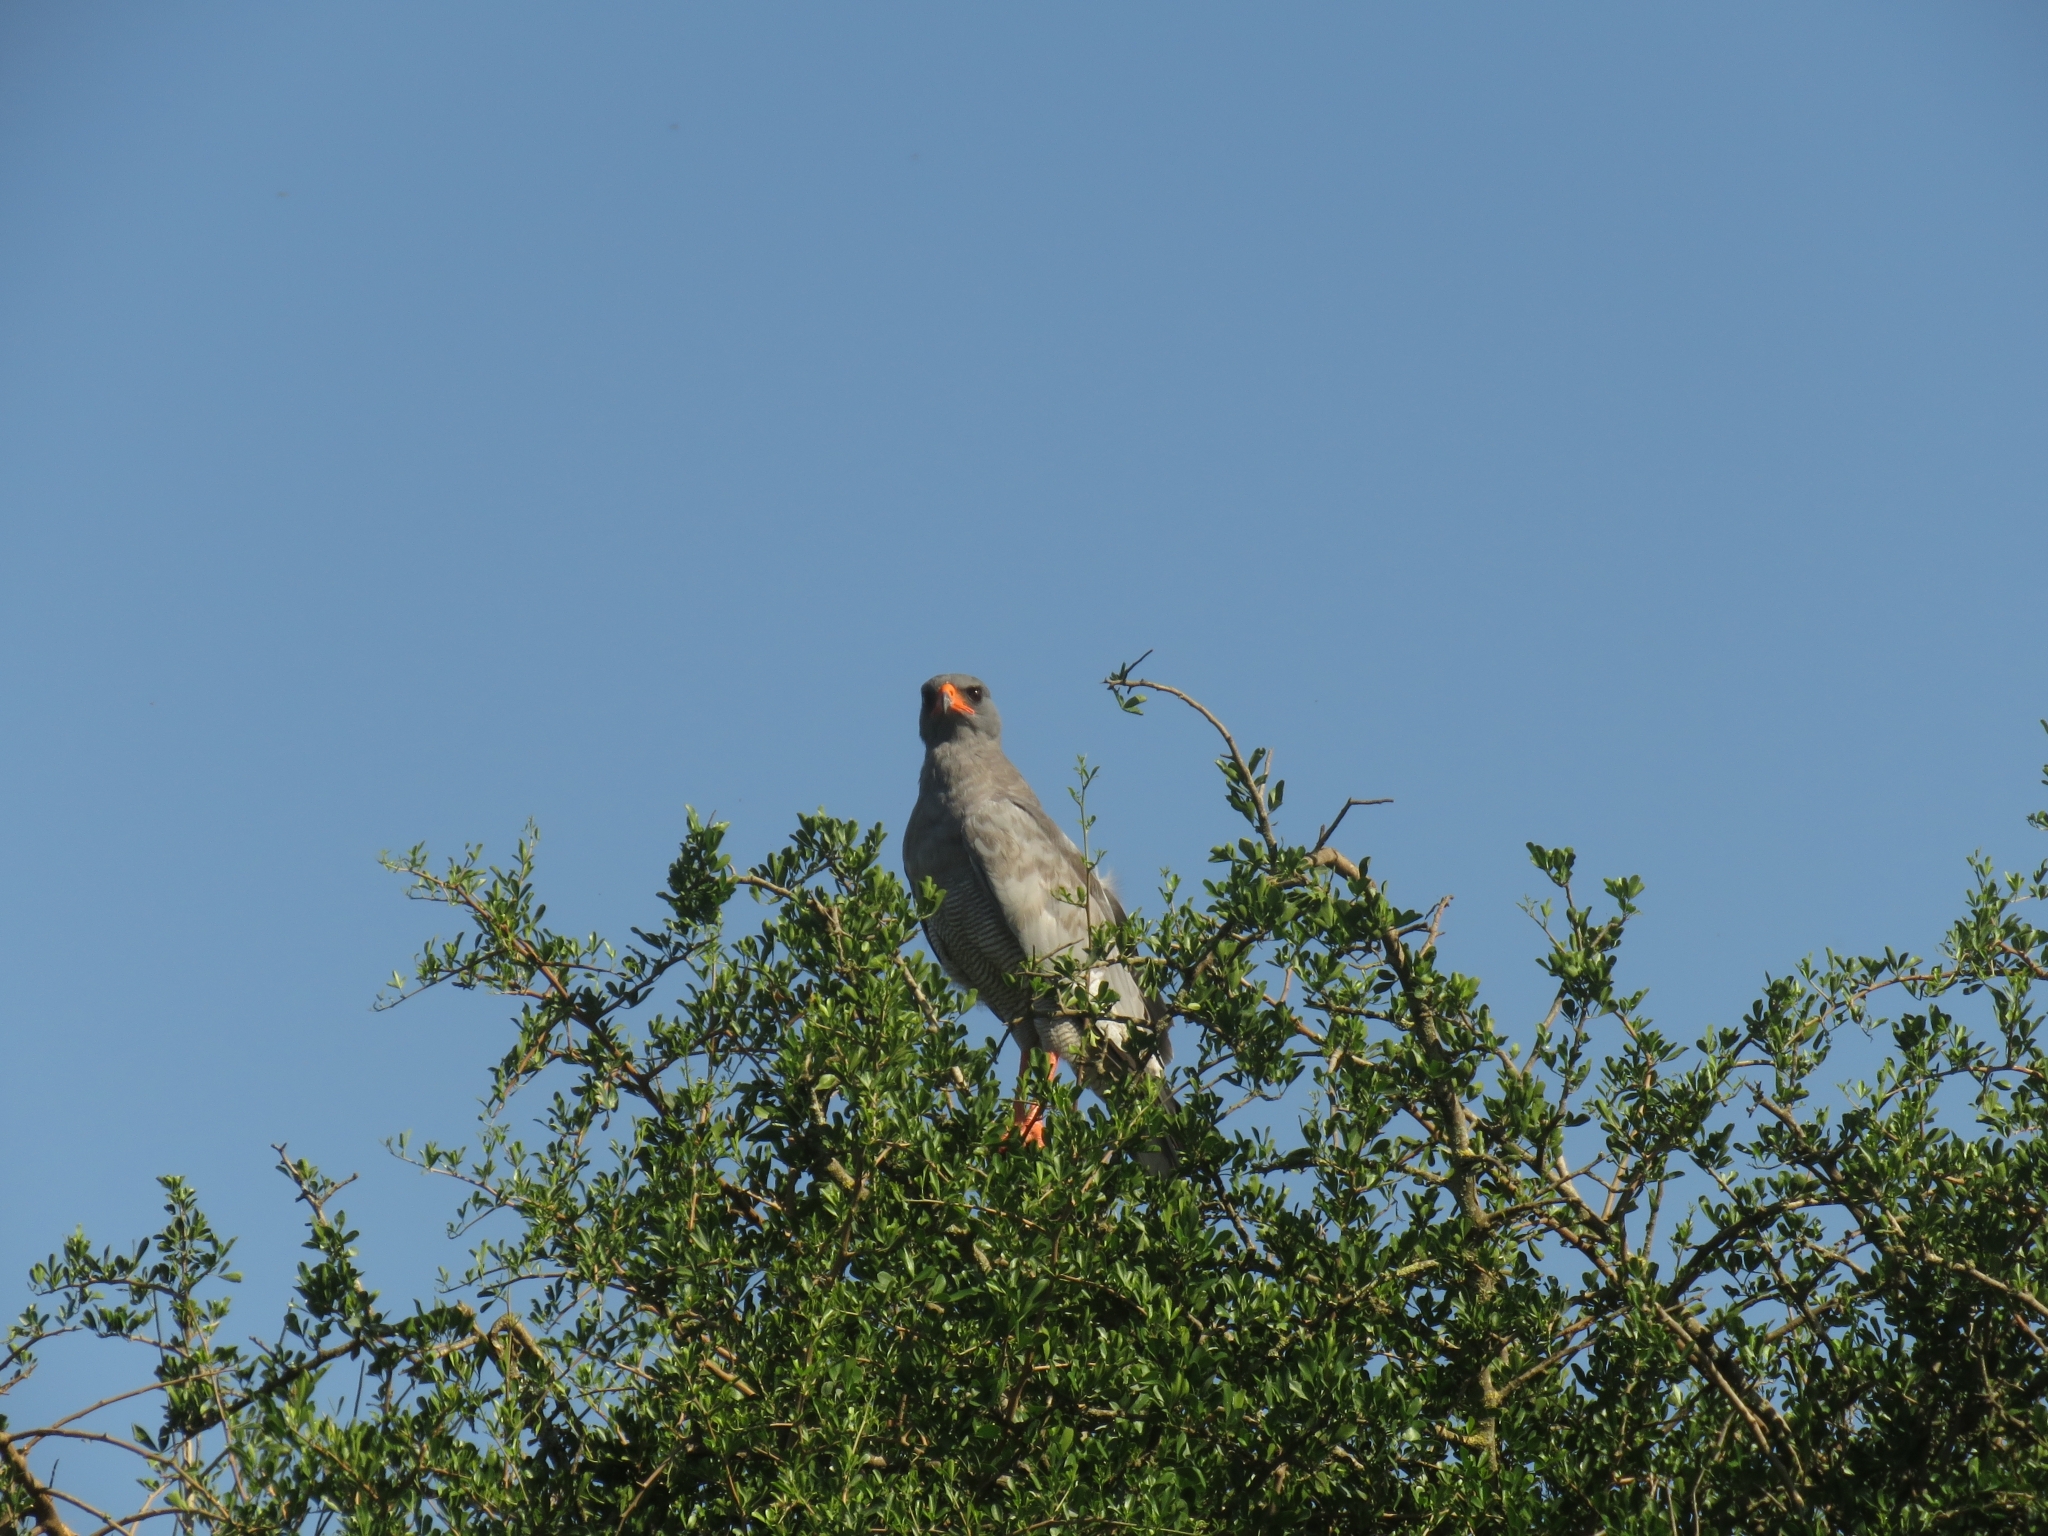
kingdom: Animalia
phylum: Chordata
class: Aves
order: Accipitriformes
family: Accipitridae
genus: Melierax
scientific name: Melierax canorus
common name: Pale chanting-goshawk
